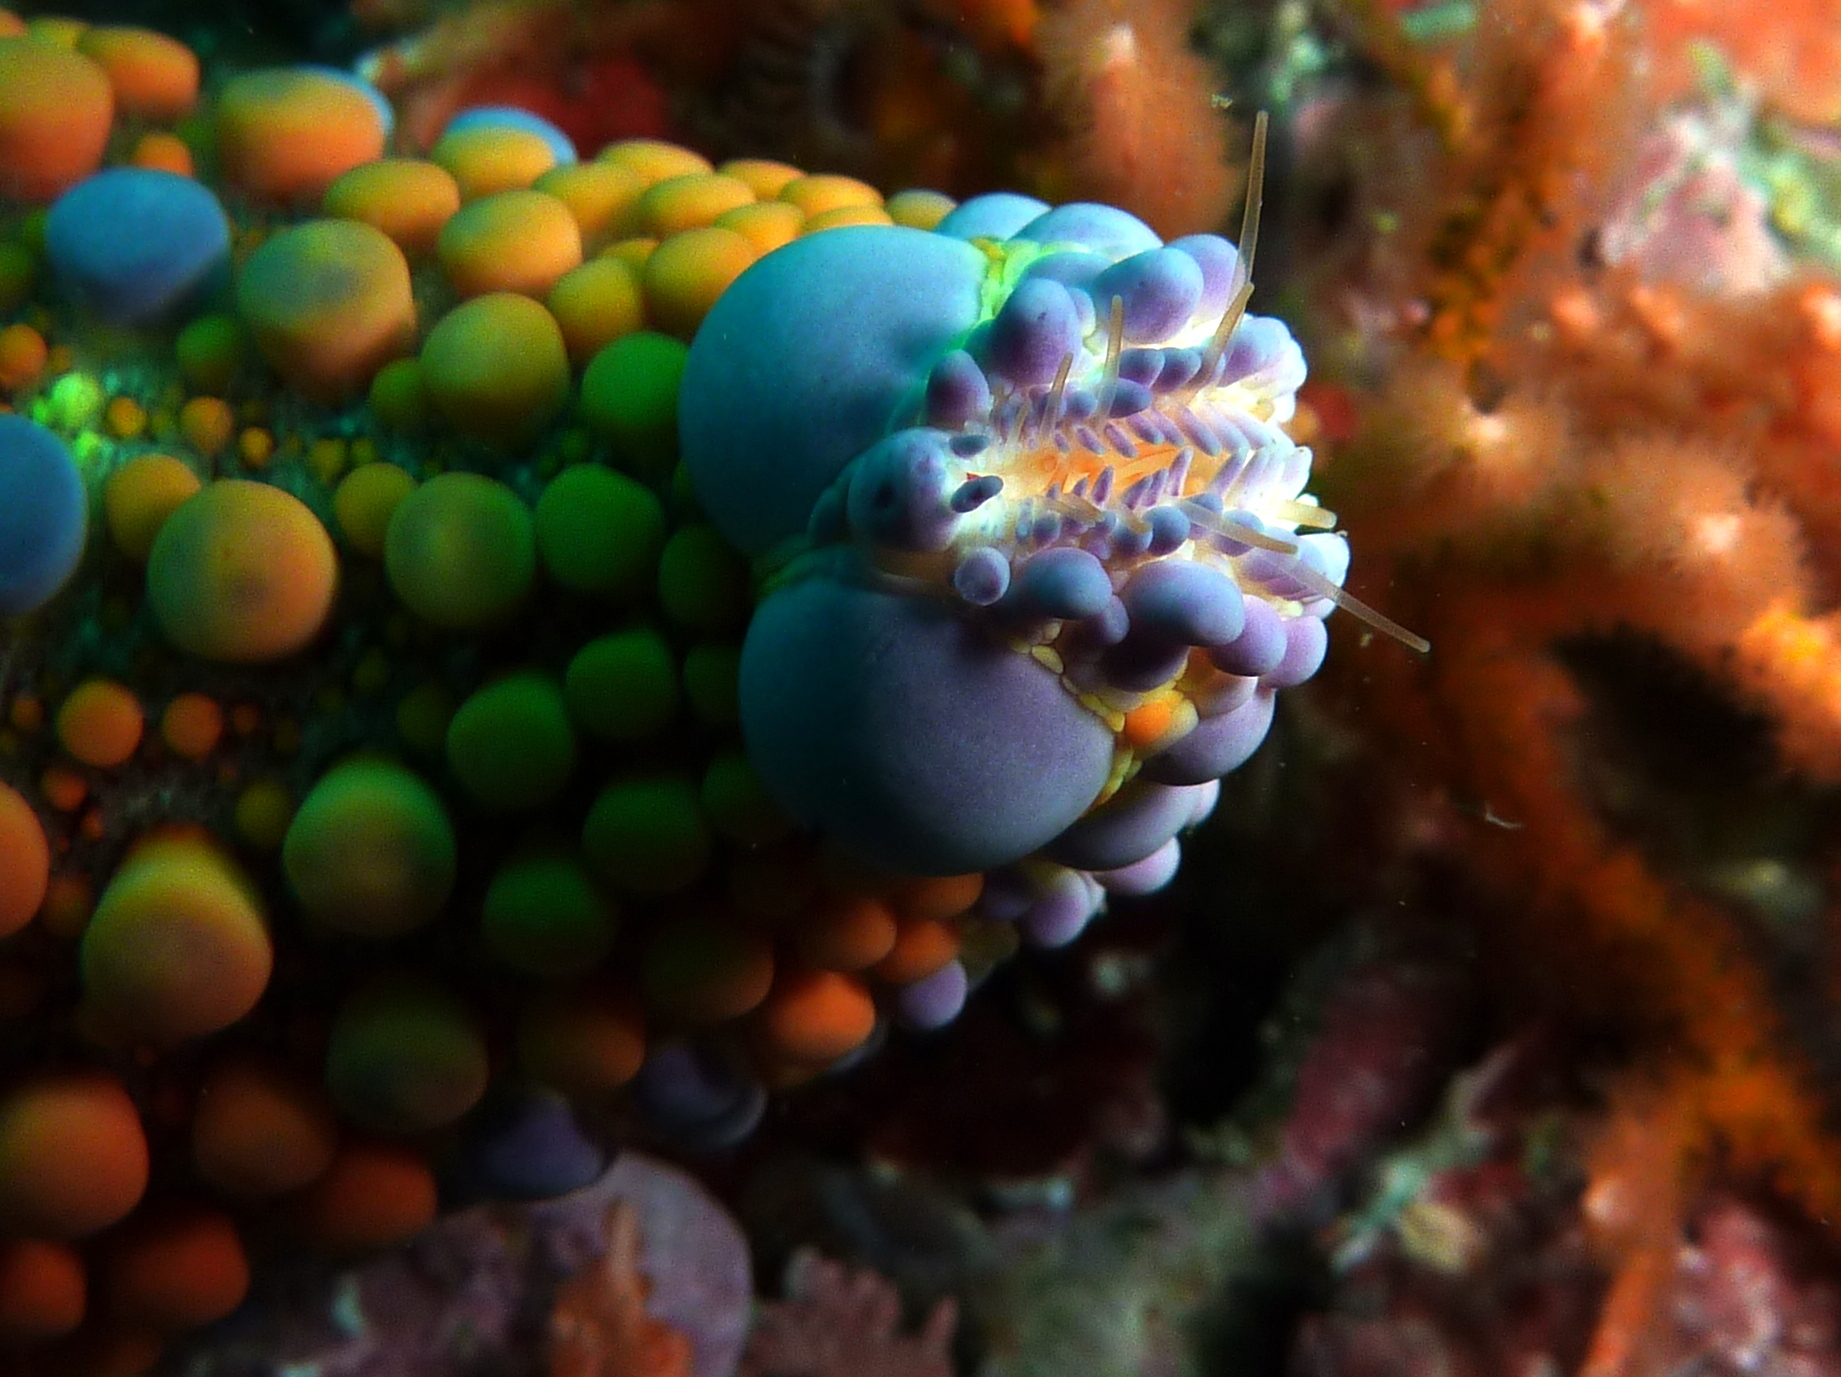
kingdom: Animalia
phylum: Echinodermata
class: Asteroidea
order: Valvatida
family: Asterodiscididae
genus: Asterodiscides
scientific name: Asterodiscides truncatus
